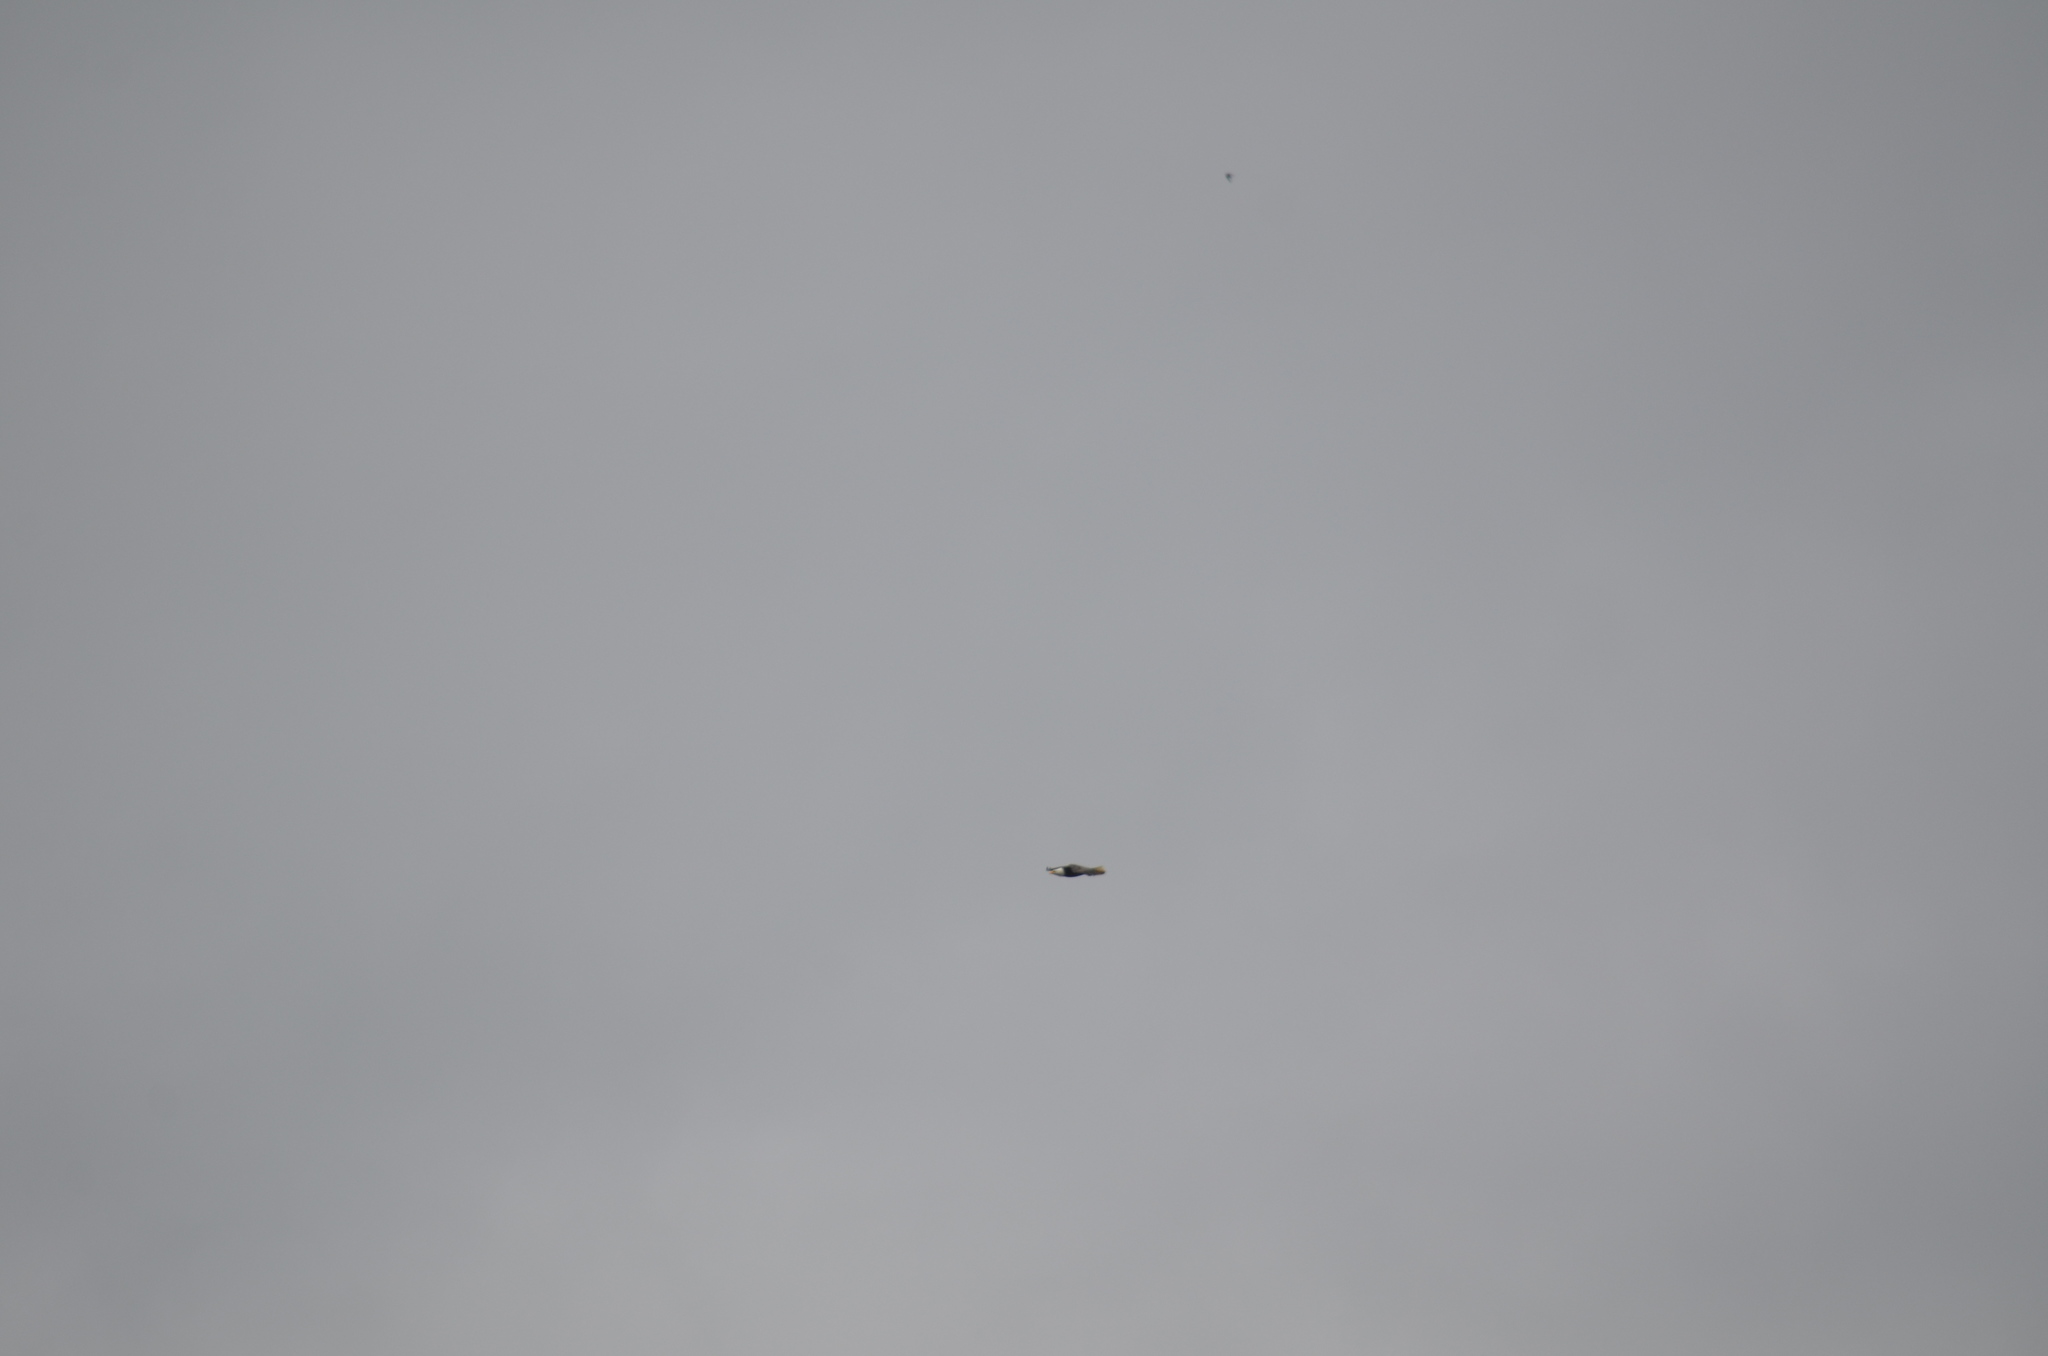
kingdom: Animalia
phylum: Chordata
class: Aves
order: Accipitriformes
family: Accipitridae
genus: Haliaeetus
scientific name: Haliaeetus leucocephalus
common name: Bald eagle
